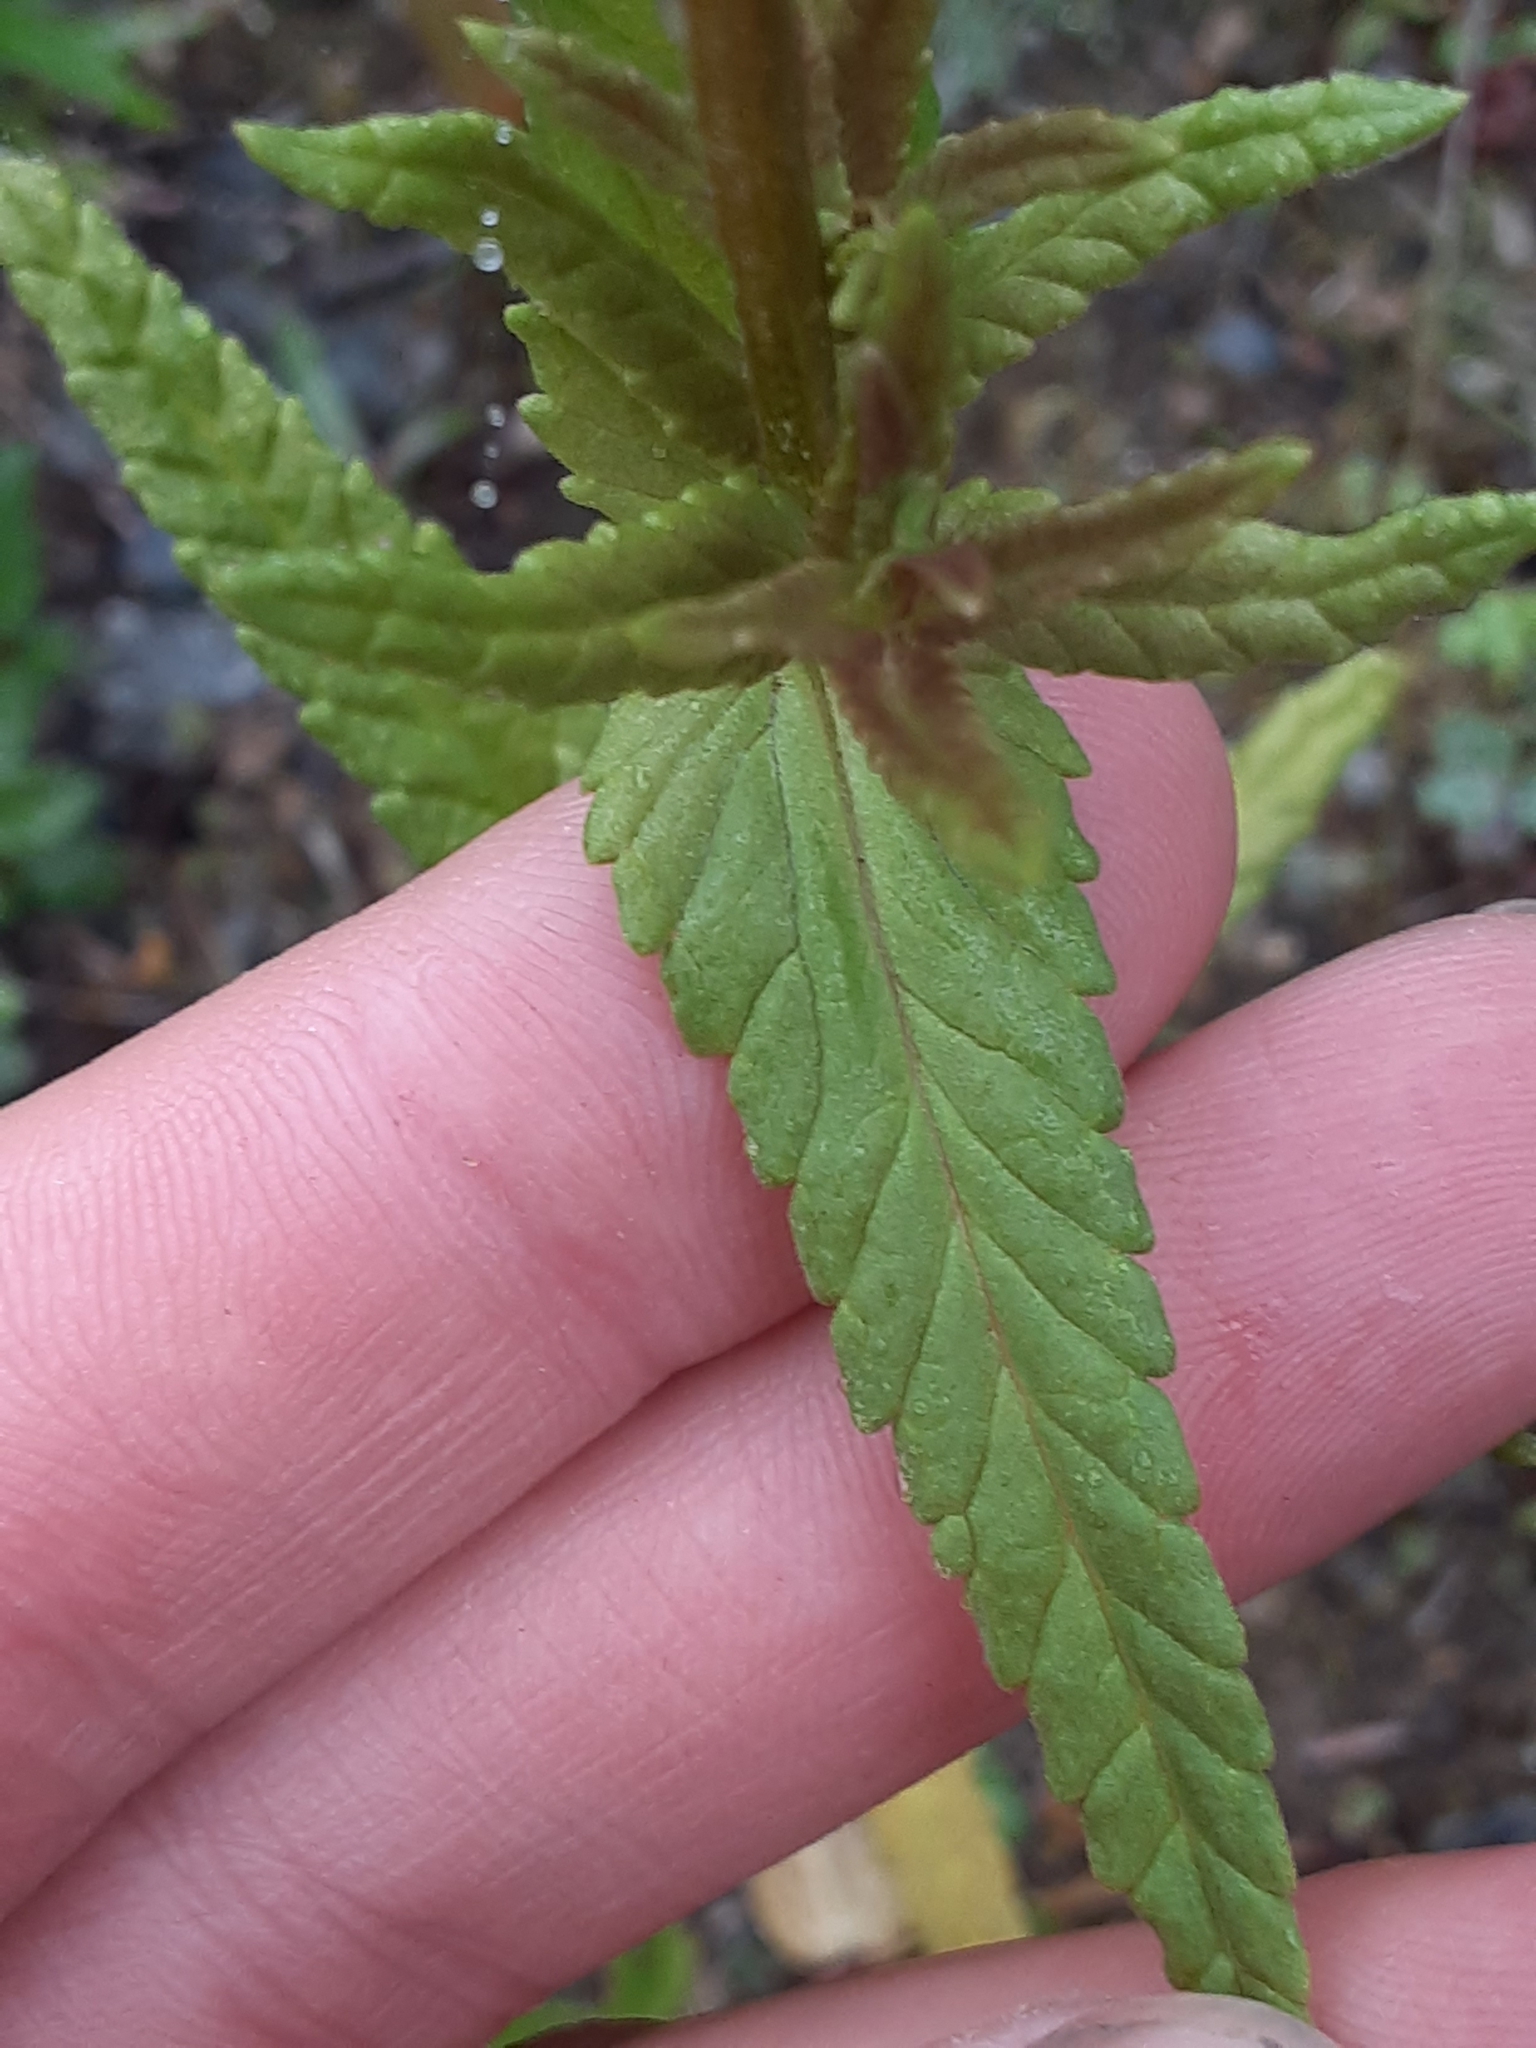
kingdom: Plantae
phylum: Tracheophyta
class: Magnoliopsida
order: Lamiales
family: Orobanchaceae
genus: Rhinanthus
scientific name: Rhinanthus minor
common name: Yellow-rattle
